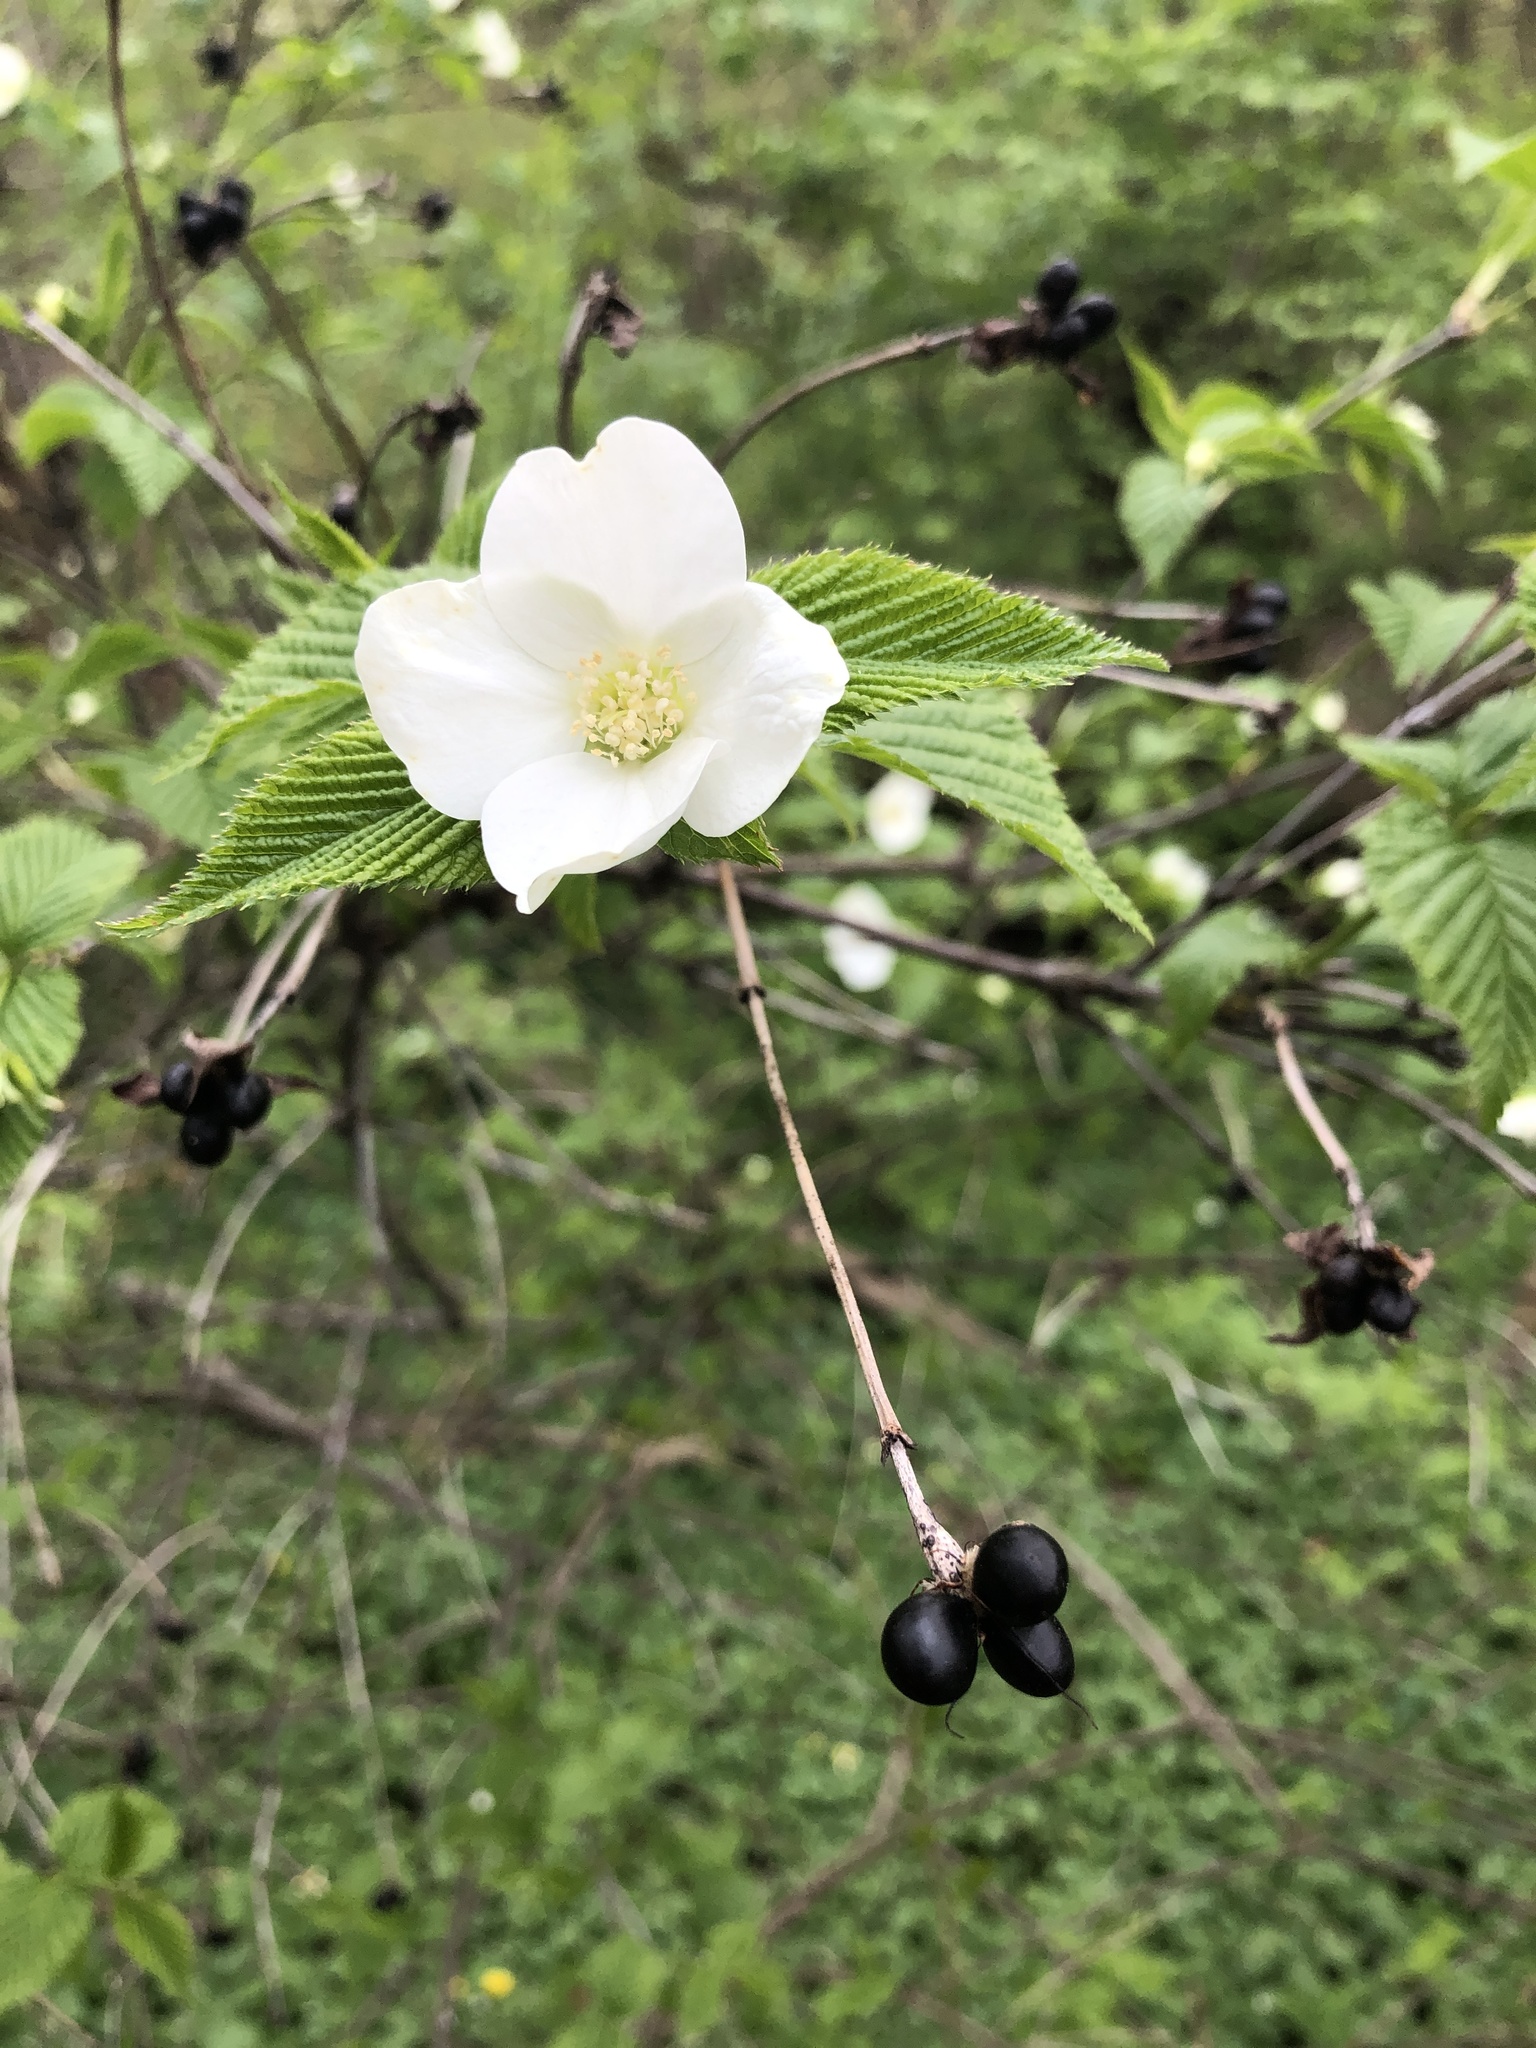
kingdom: Plantae
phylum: Tracheophyta
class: Magnoliopsida
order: Rosales
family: Rosaceae
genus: Rhodotypos
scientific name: Rhodotypos scandens
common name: Jetbead
